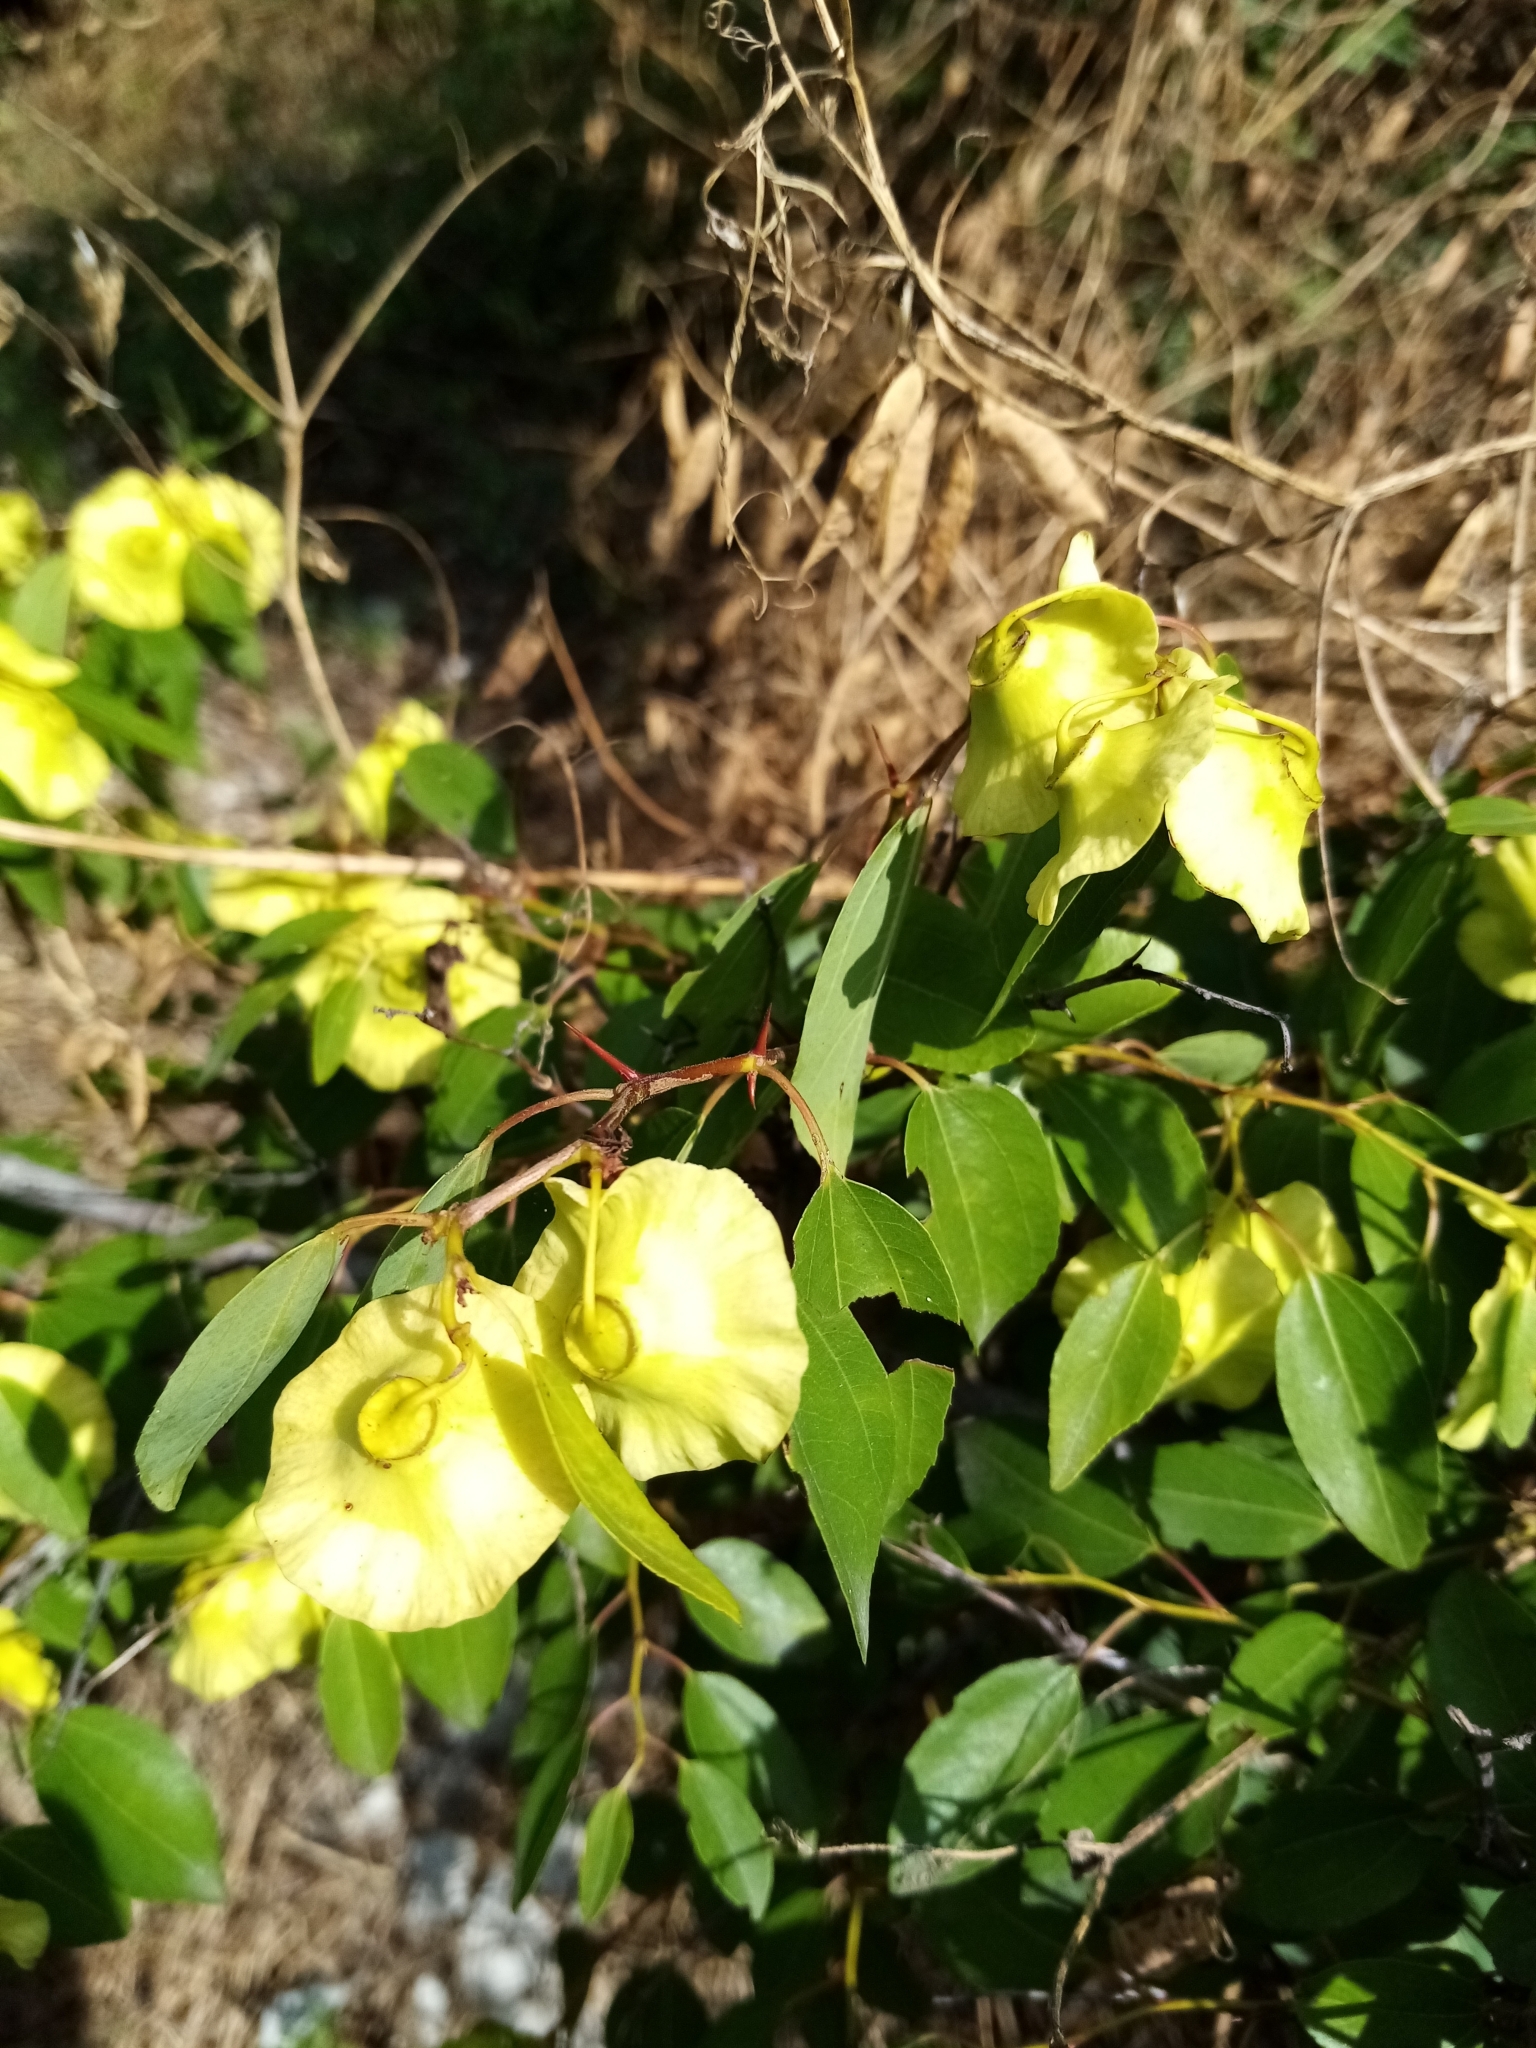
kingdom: Plantae
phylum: Tracheophyta
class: Magnoliopsida
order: Rosales
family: Rhamnaceae
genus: Paliurus
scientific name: Paliurus spina-christi
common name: Jeruselem thorn
